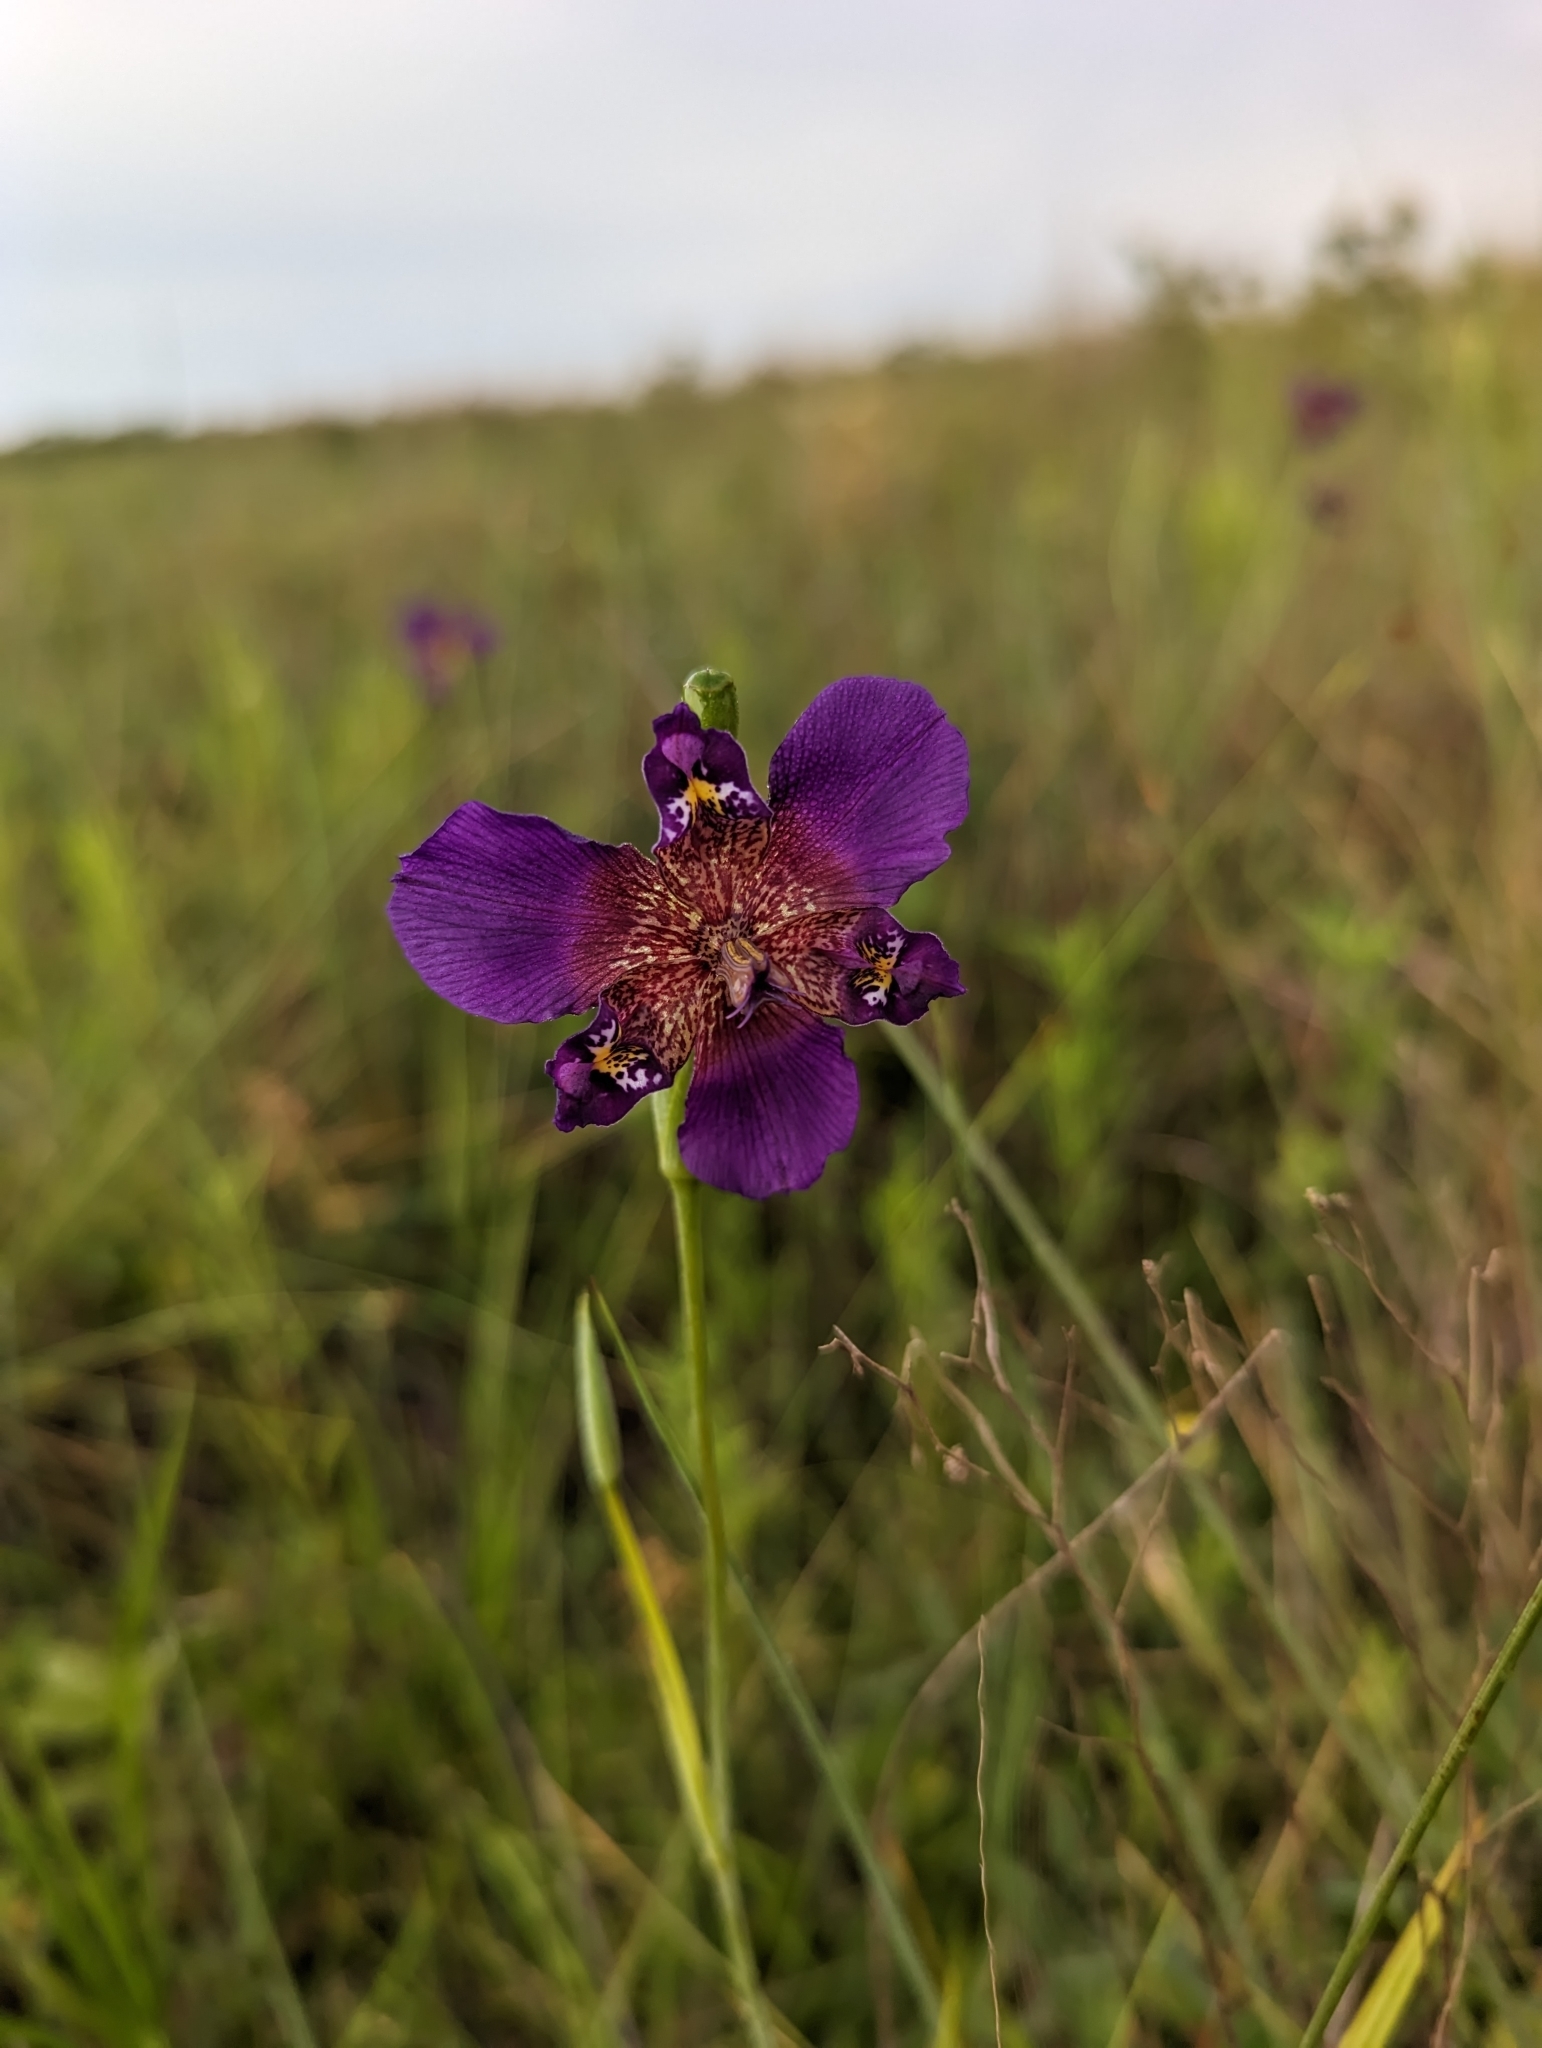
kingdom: Plantae
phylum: Tracheophyta
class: Liliopsida
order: Asparagales
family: Iridaceae
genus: Alophia
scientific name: Alophia drummondii
